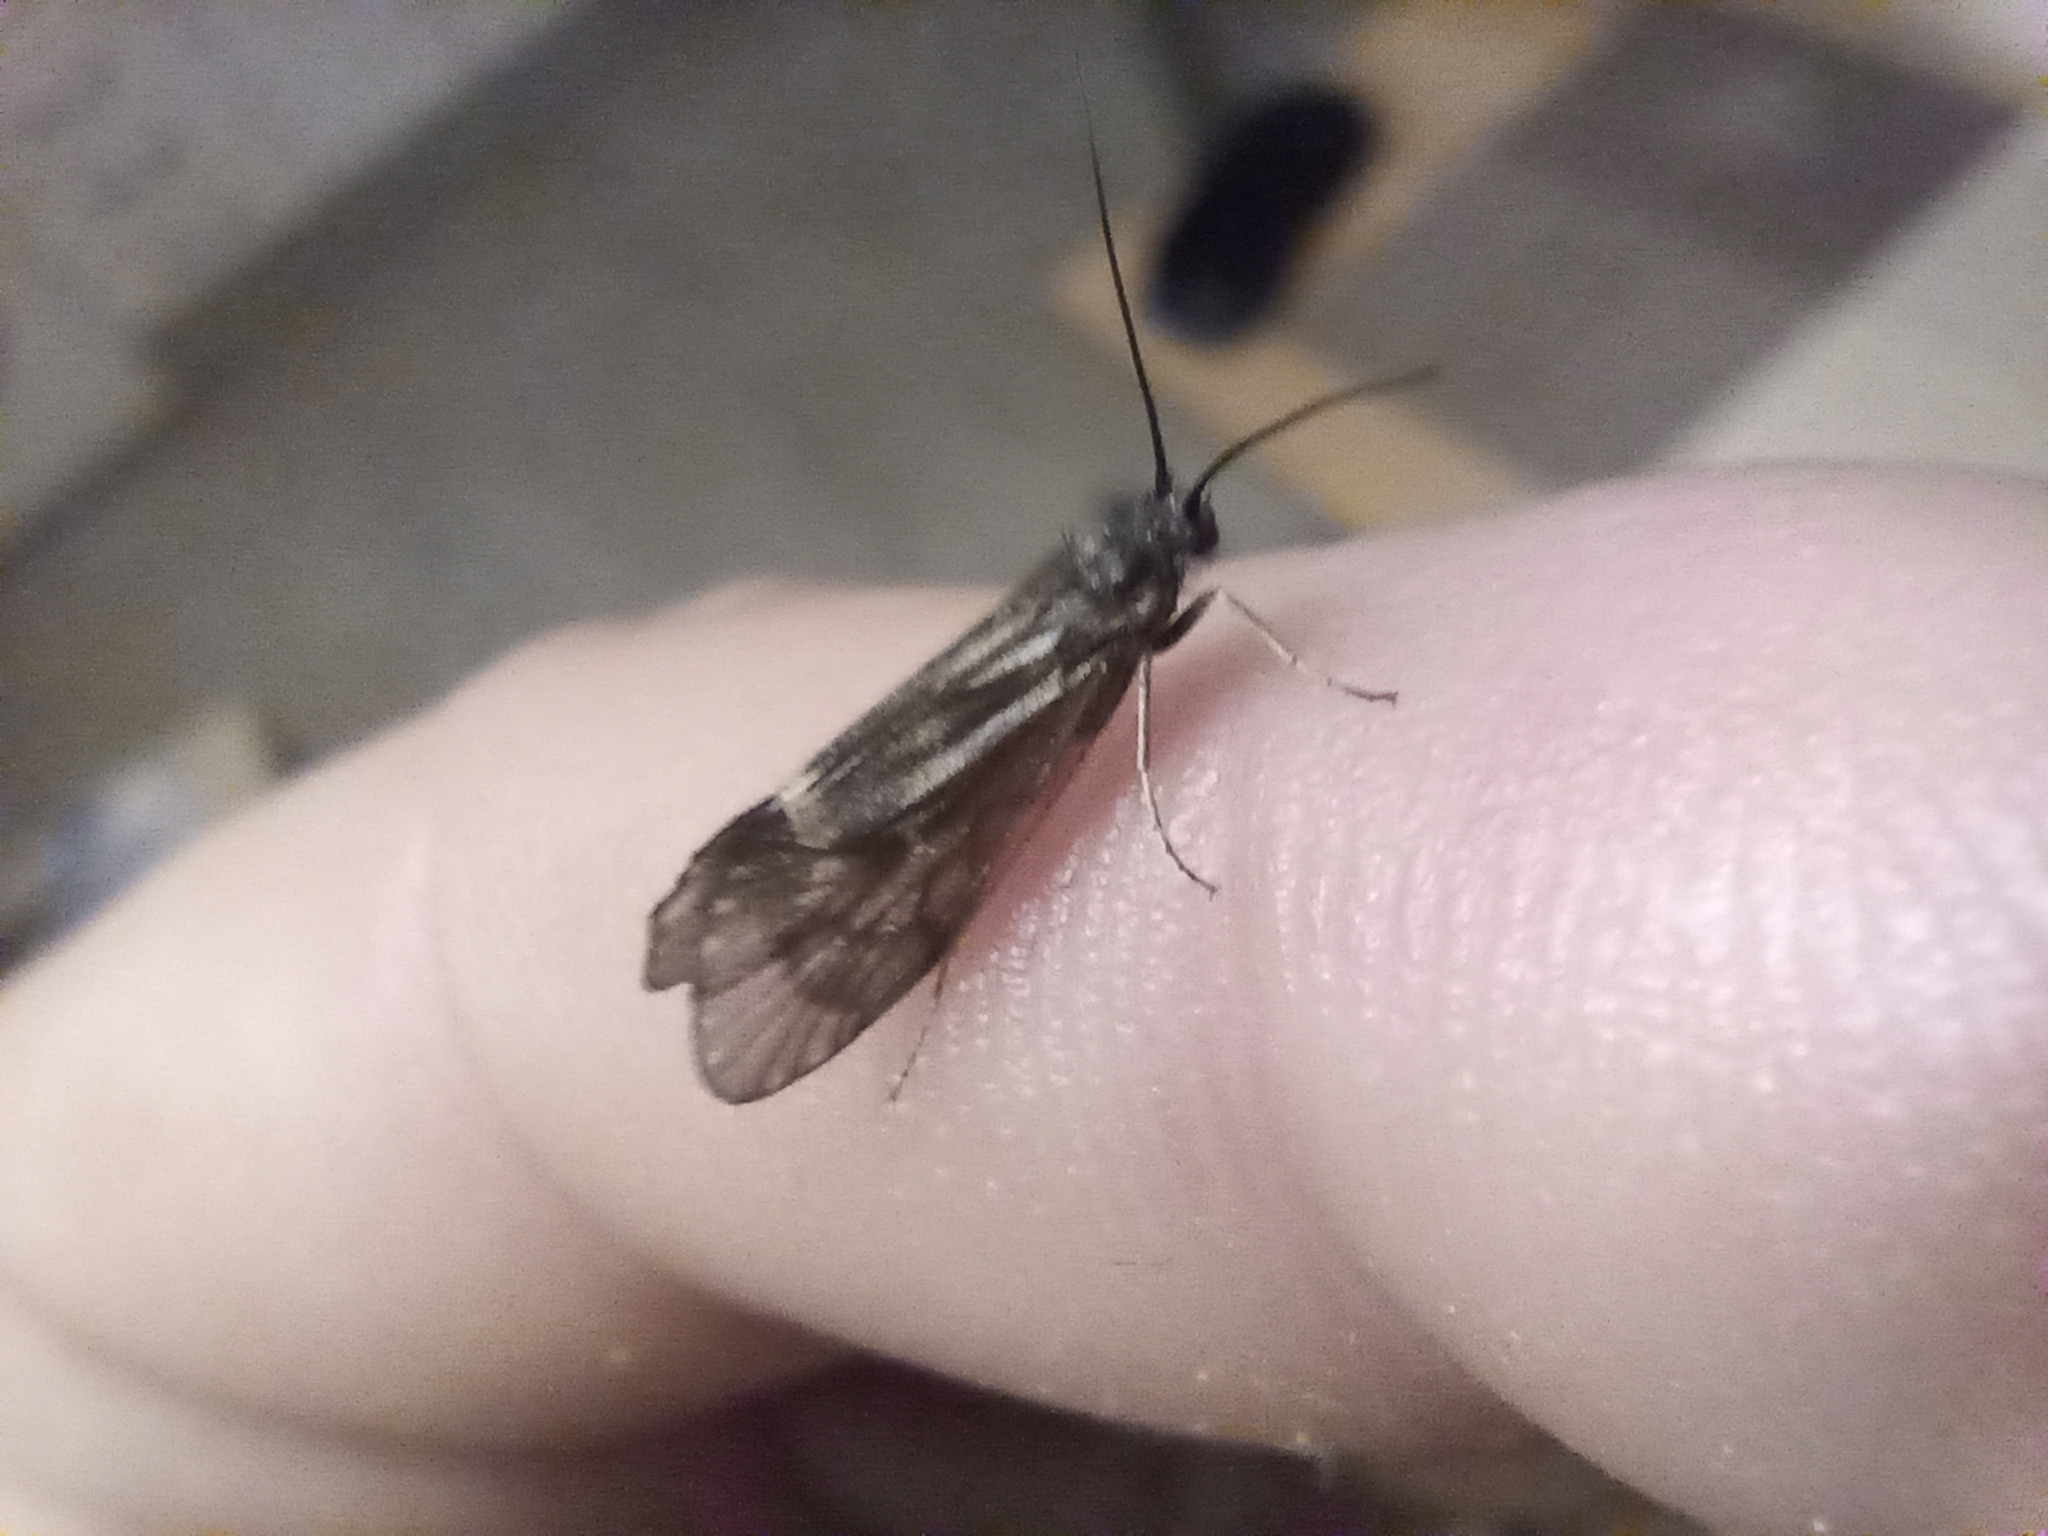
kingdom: Animalia
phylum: Arthropoda
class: Insecta
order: Trichoptera
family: Brachycentridae
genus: Brachycentrus
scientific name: Brachycentrus subnubilis
